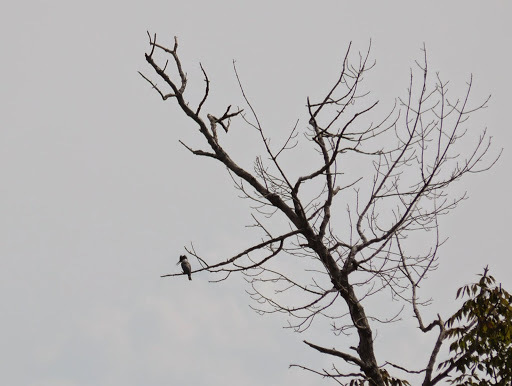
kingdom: Animalia
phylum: Chordata
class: Aves
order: Coraciiformes
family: Alcedinidae
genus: Megaceryle
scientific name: Megaceryle alcyon
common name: Belted kingfisher
